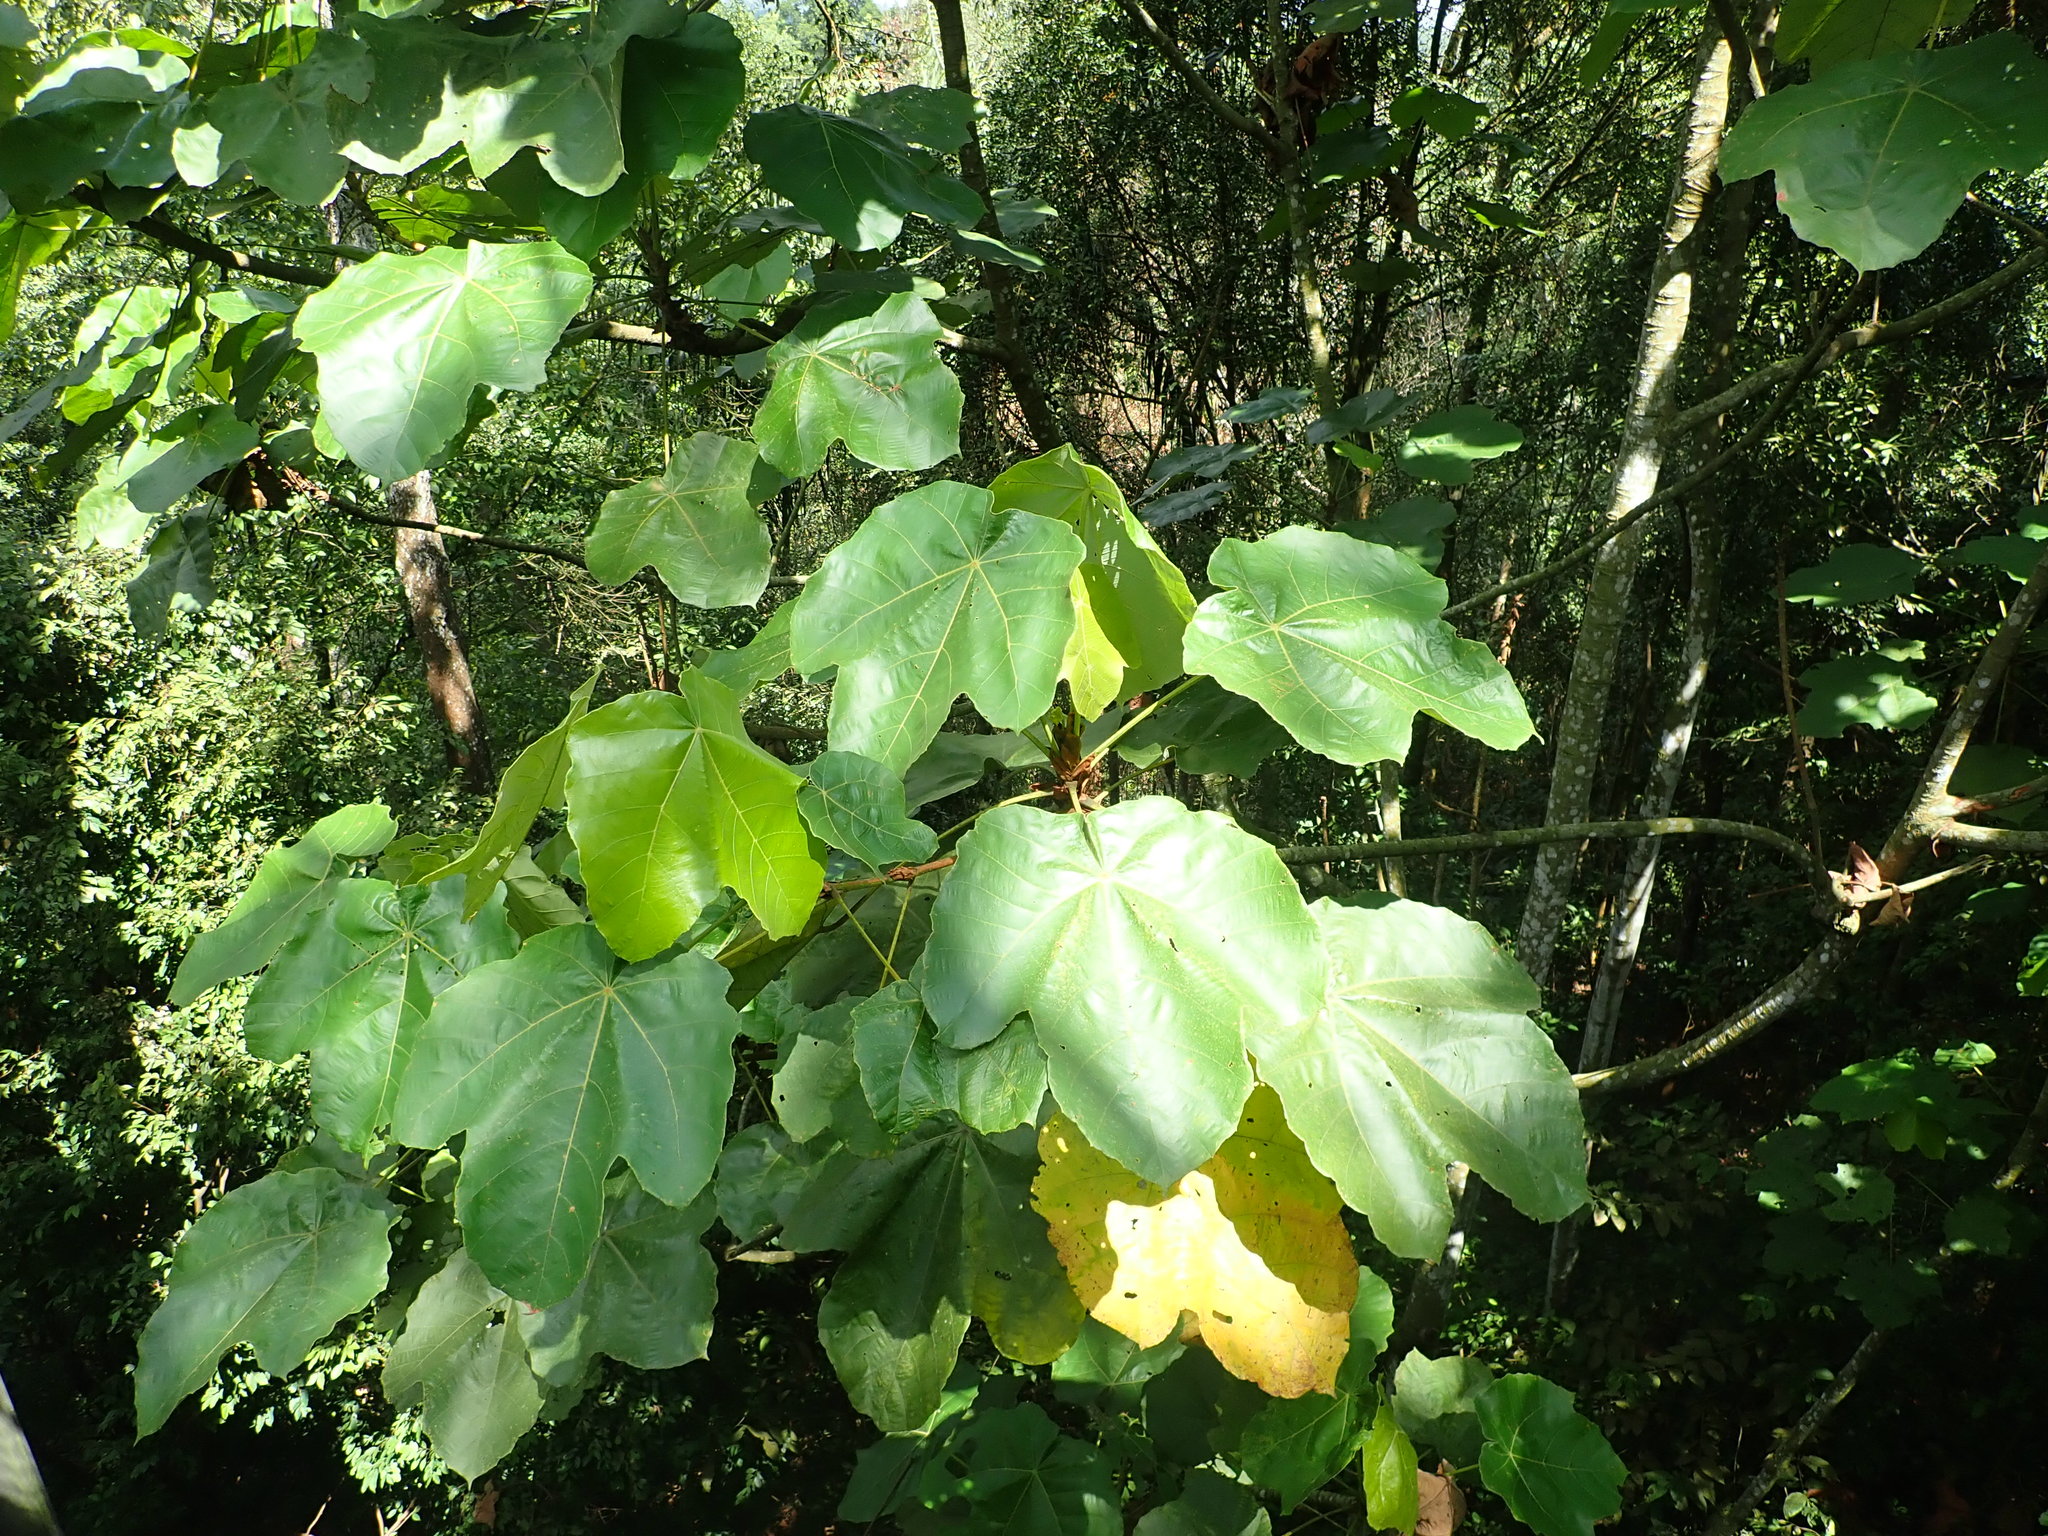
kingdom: Plantae
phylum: Tracheophyta
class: Magnoliopsida
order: Malpighiales
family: Euphorbiaceae
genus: Macaranga
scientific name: Macaranga gigantea
